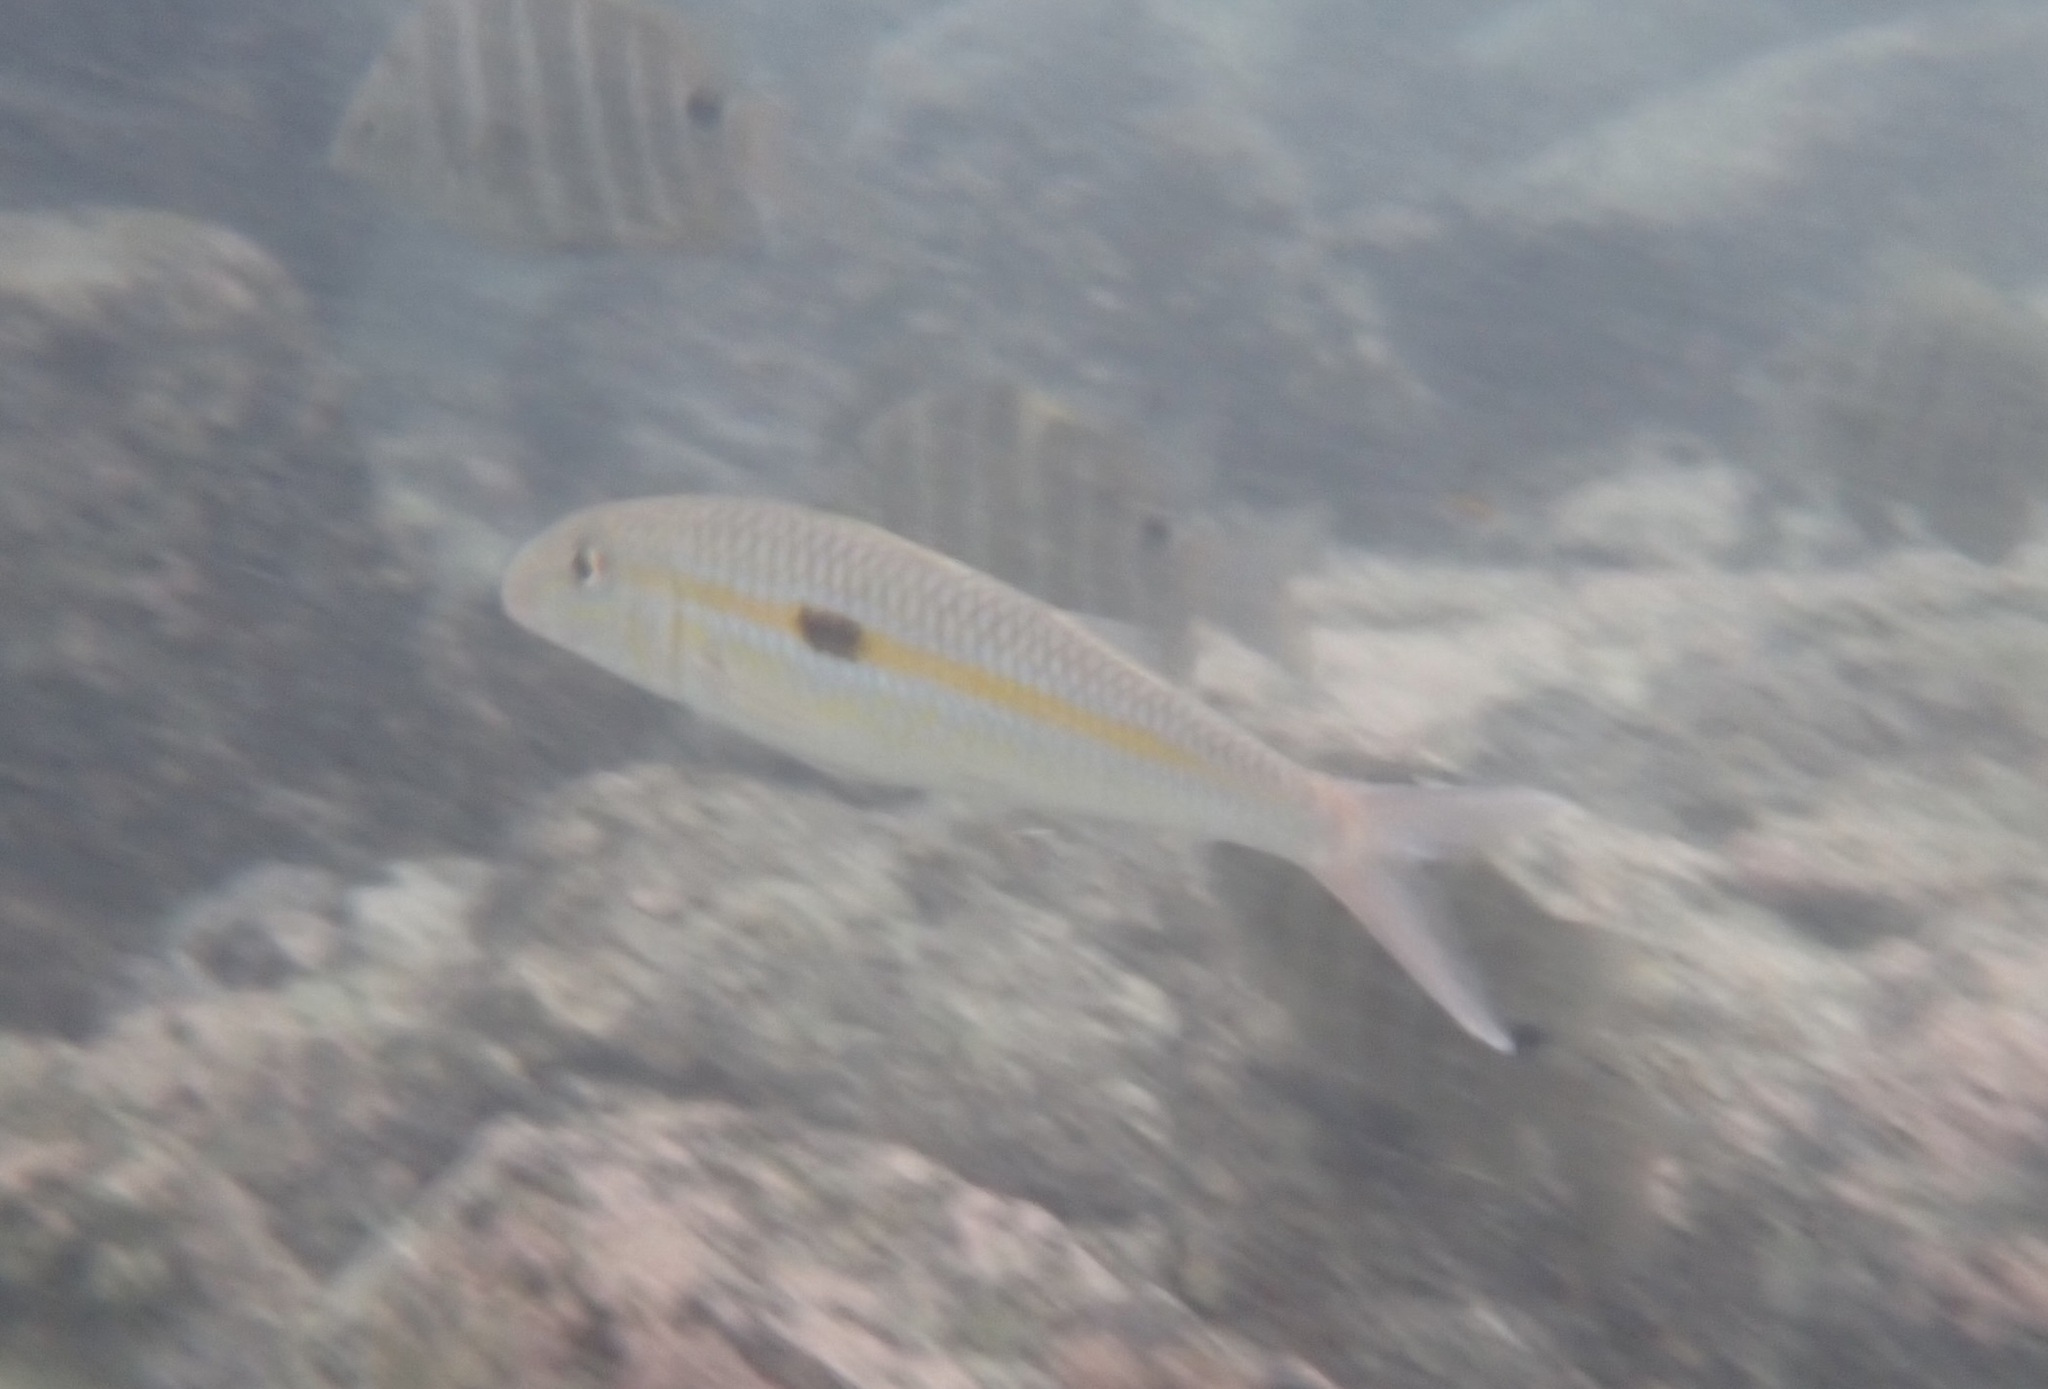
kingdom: Animalia
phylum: Chordata
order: Perciformes
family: Mullidae
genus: Mulloidichthys
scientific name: Mulloidichthys flavolineatus
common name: Yellowstripe goatfish
